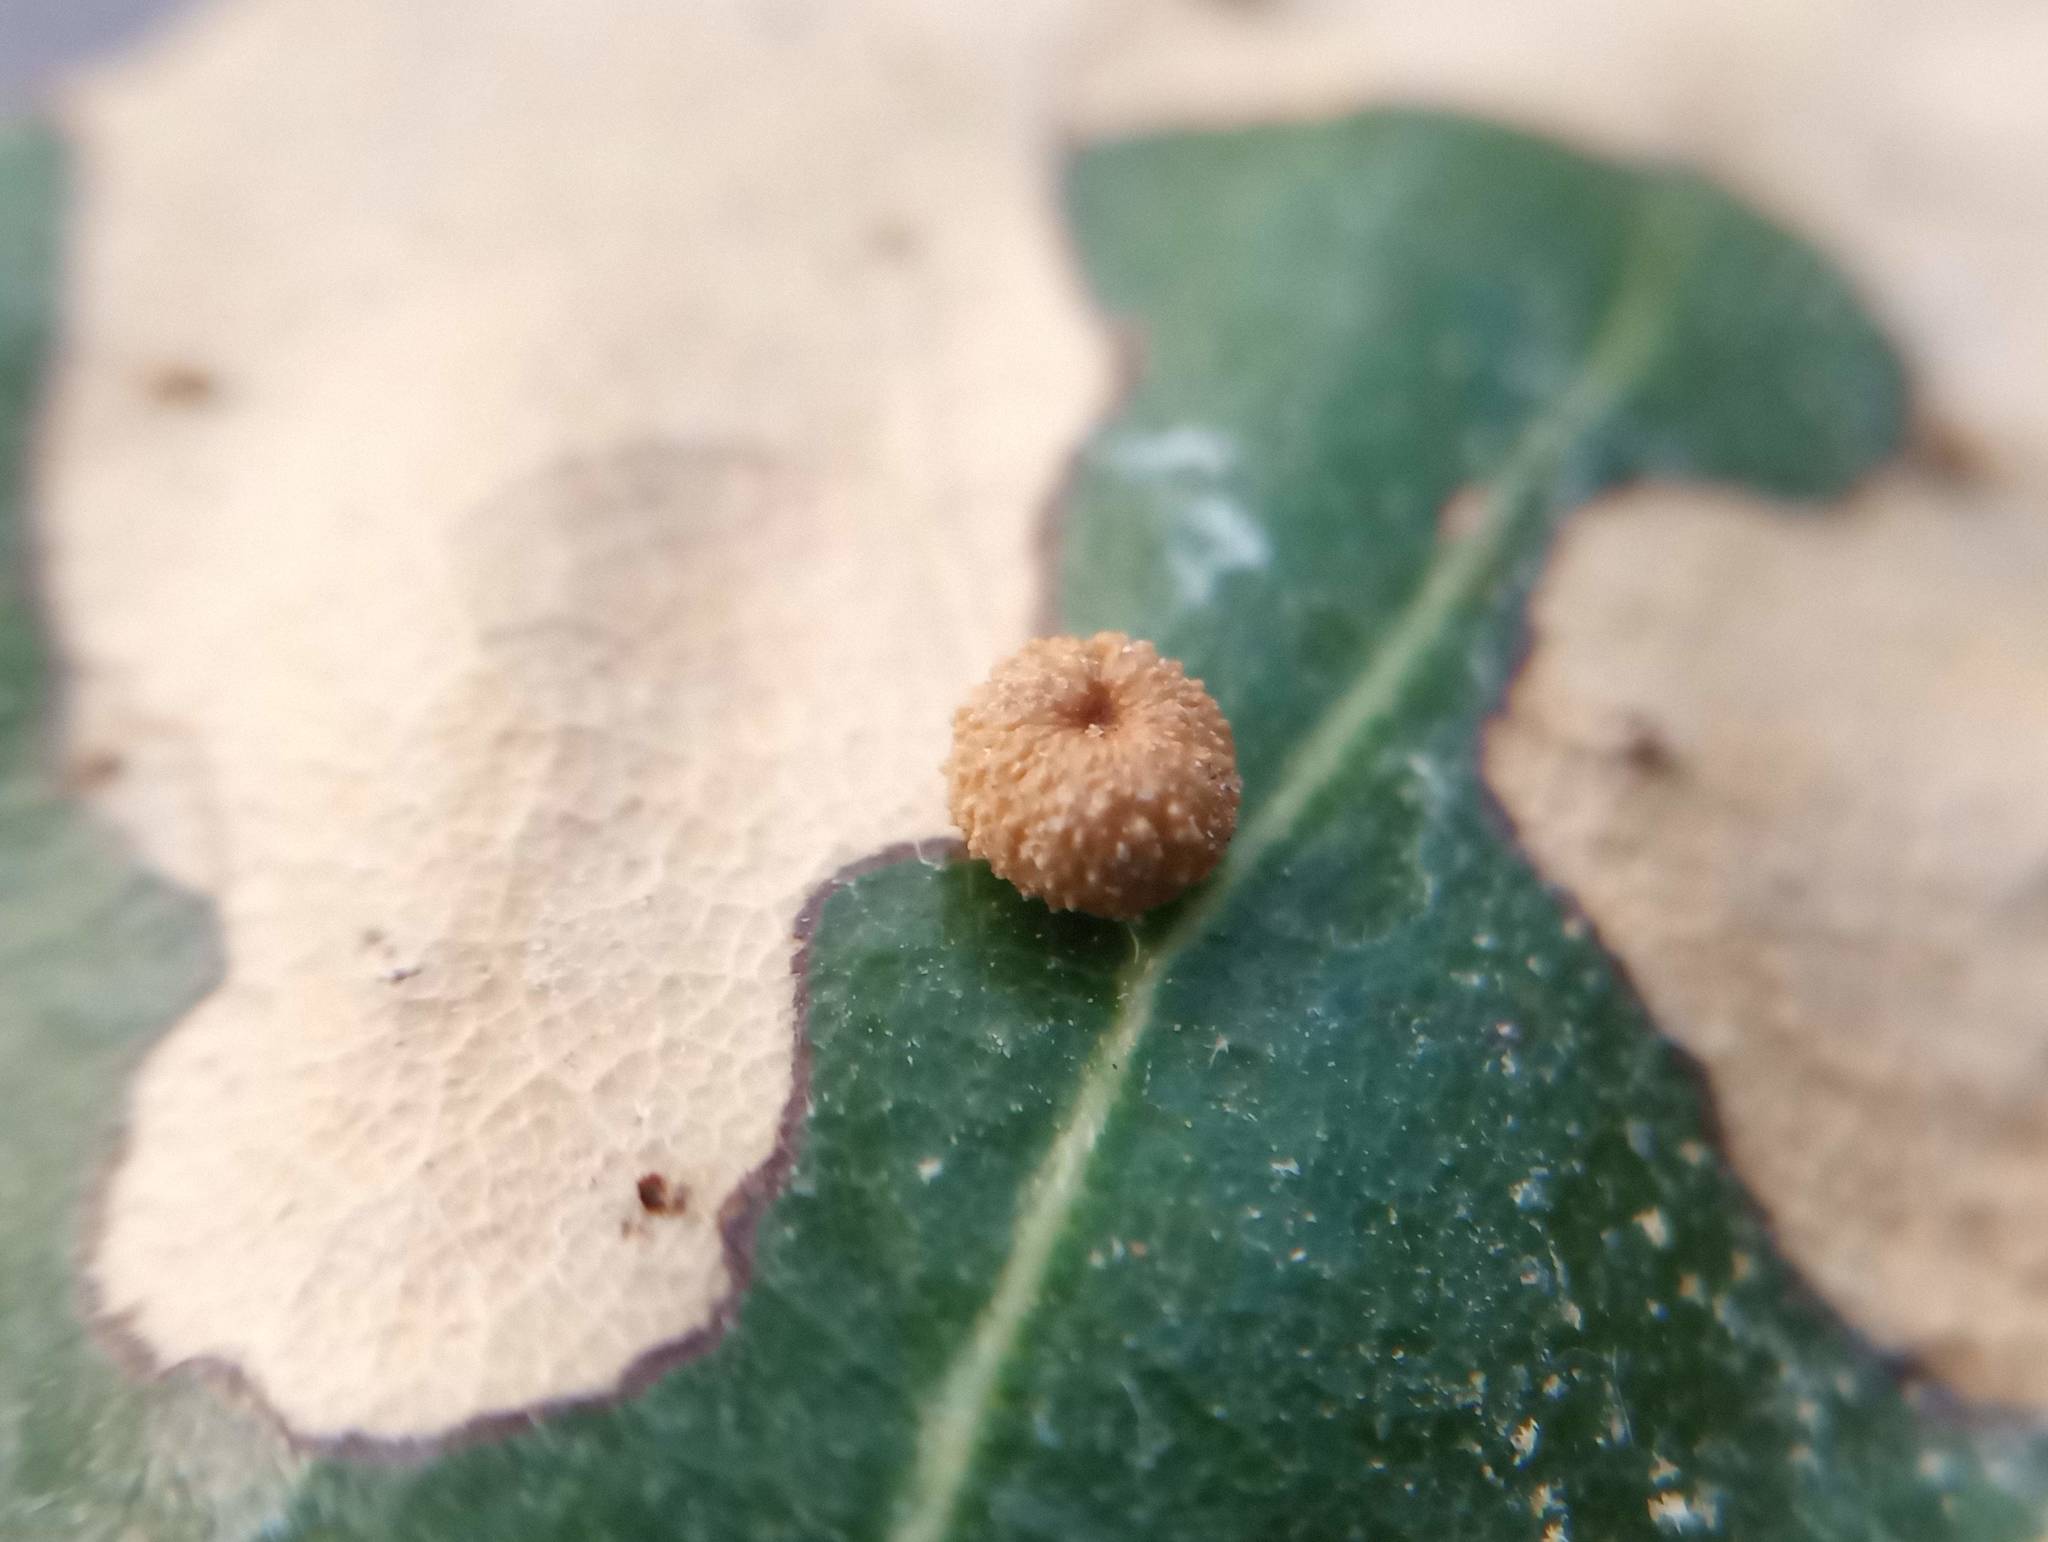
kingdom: Animalia
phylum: Arthropoda
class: Insecta
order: Hymenoptera
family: Cynipidae
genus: Dryocosmus
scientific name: Dryocosmus
